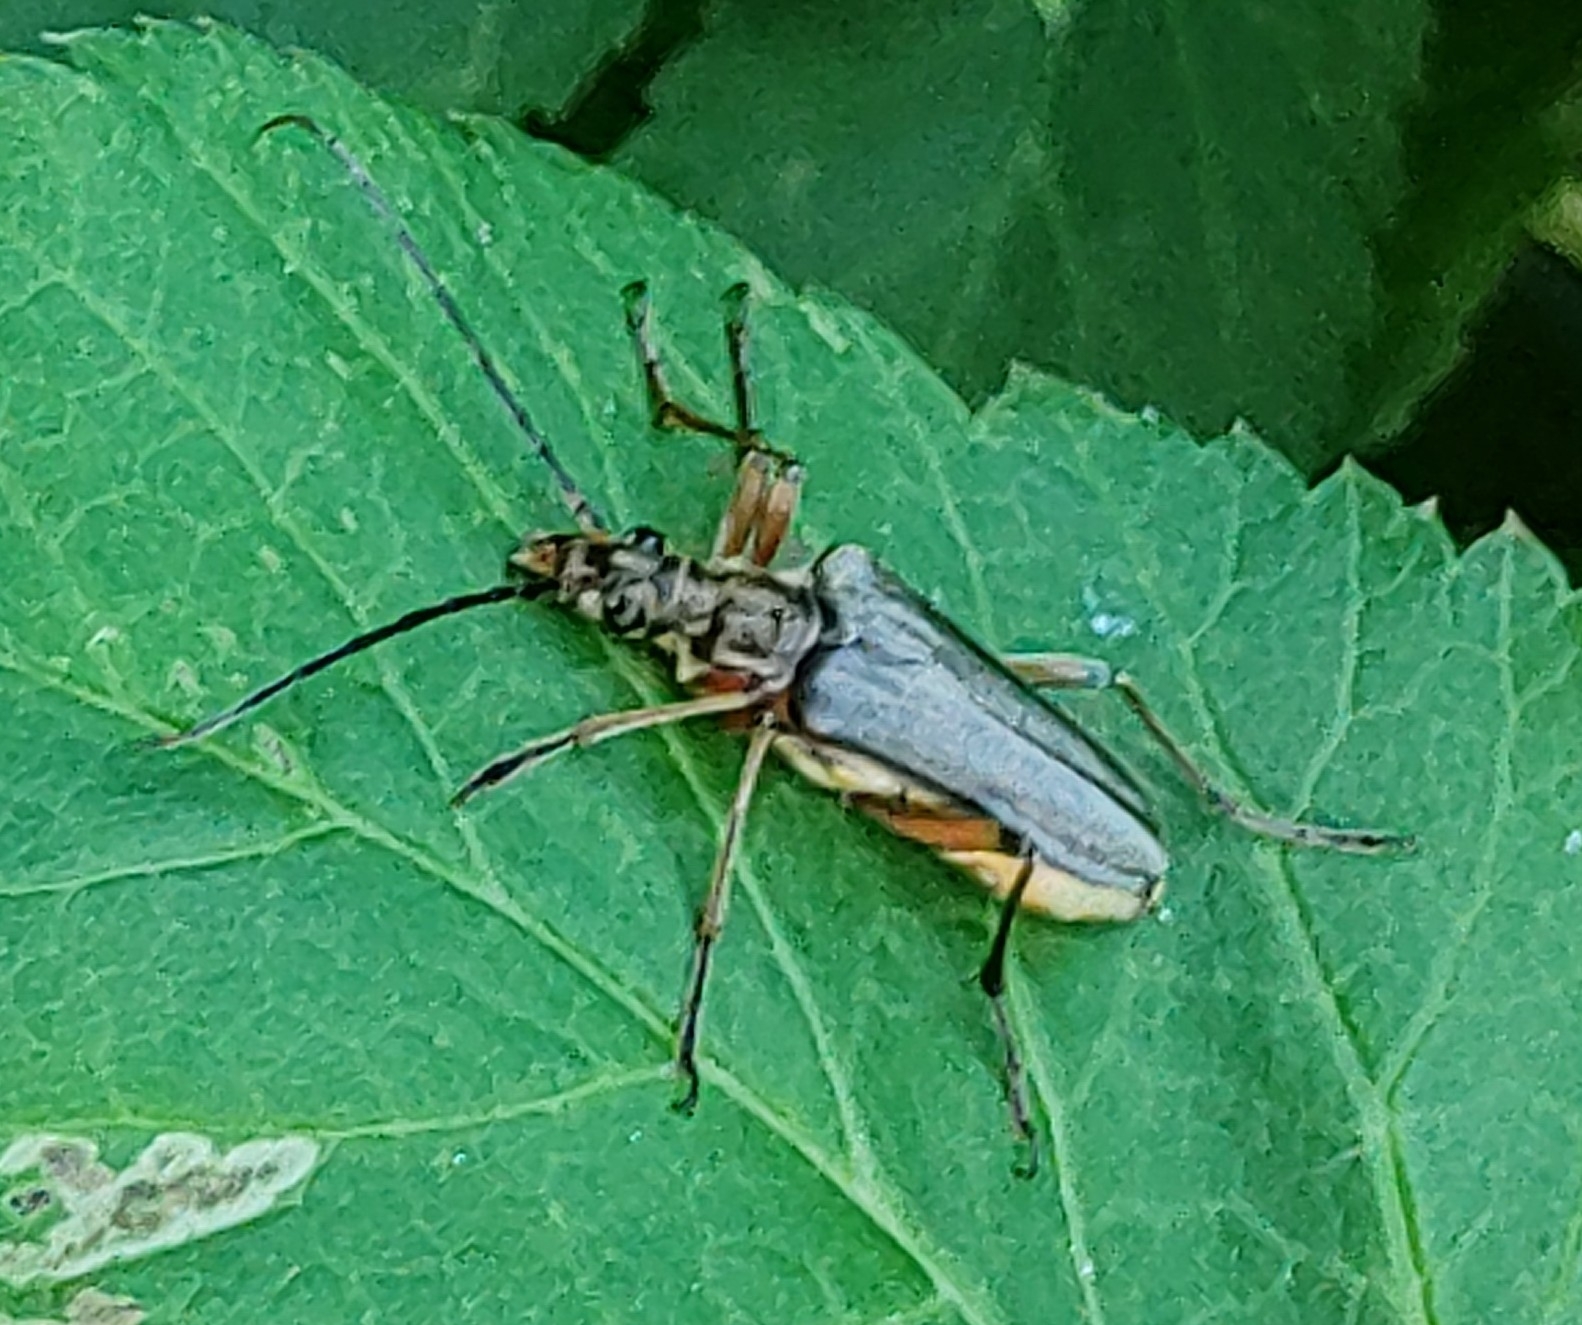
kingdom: Animalia
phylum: Arthropoda
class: Insecta
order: Coleoptera
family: Cerambycidae
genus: Stenocorus
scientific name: Stenocorus meridianus
